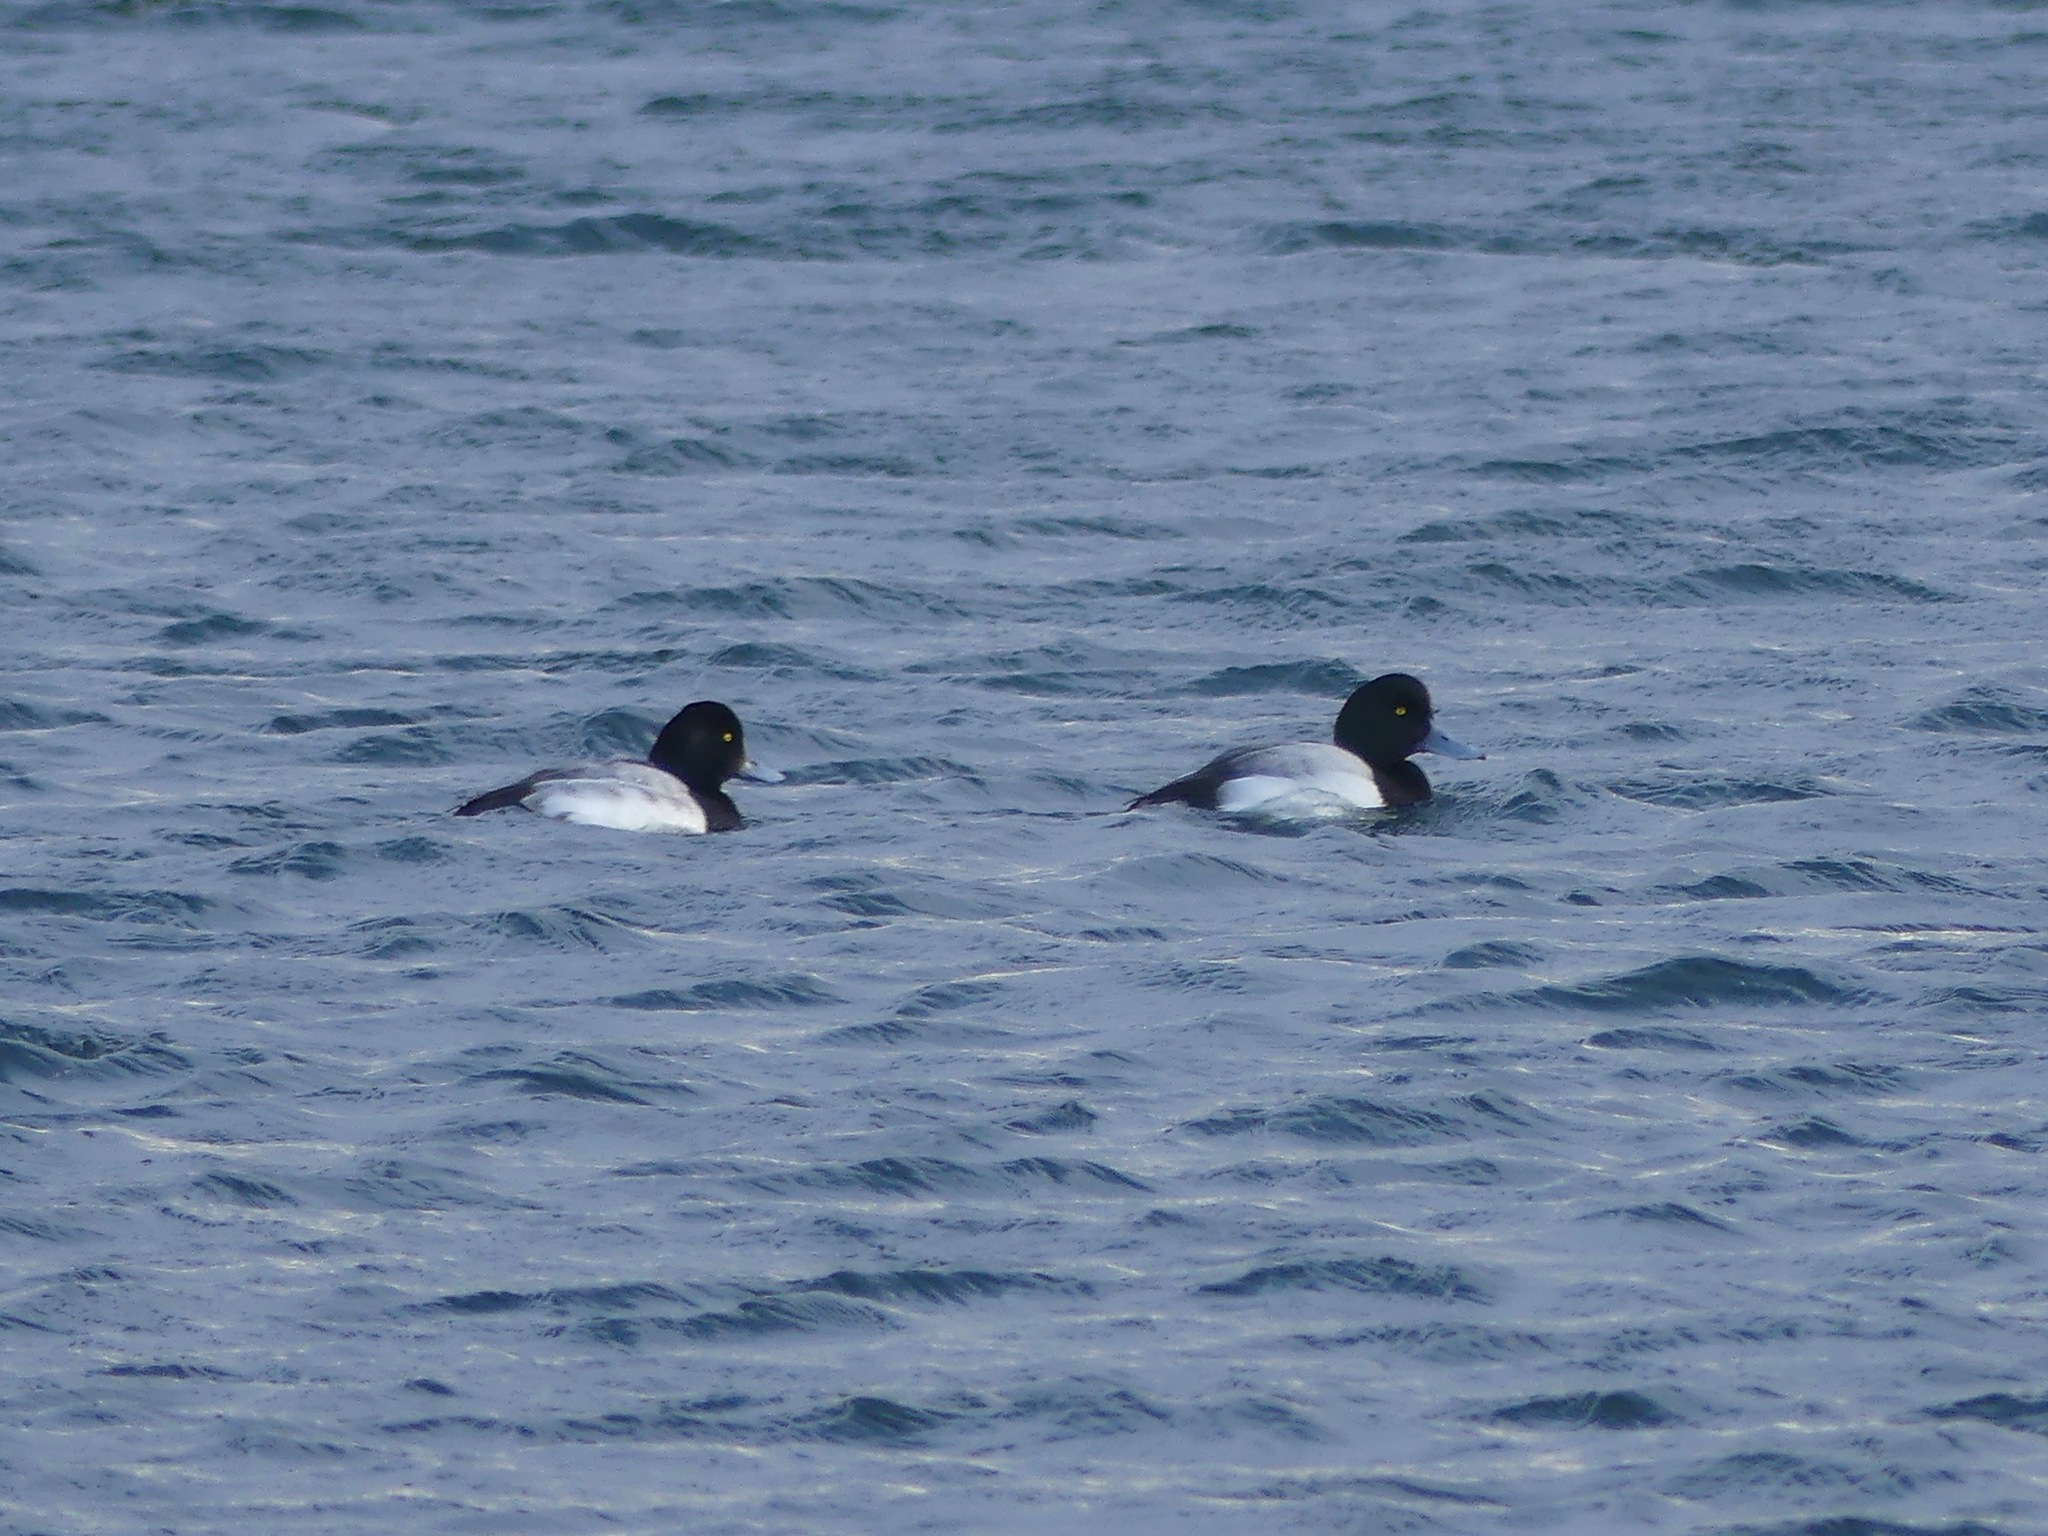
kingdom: Animalia
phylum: Chordata
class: Aves
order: Anseriformes
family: Anatidae
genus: Aythya
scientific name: Aythya marila
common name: Greater scaup
